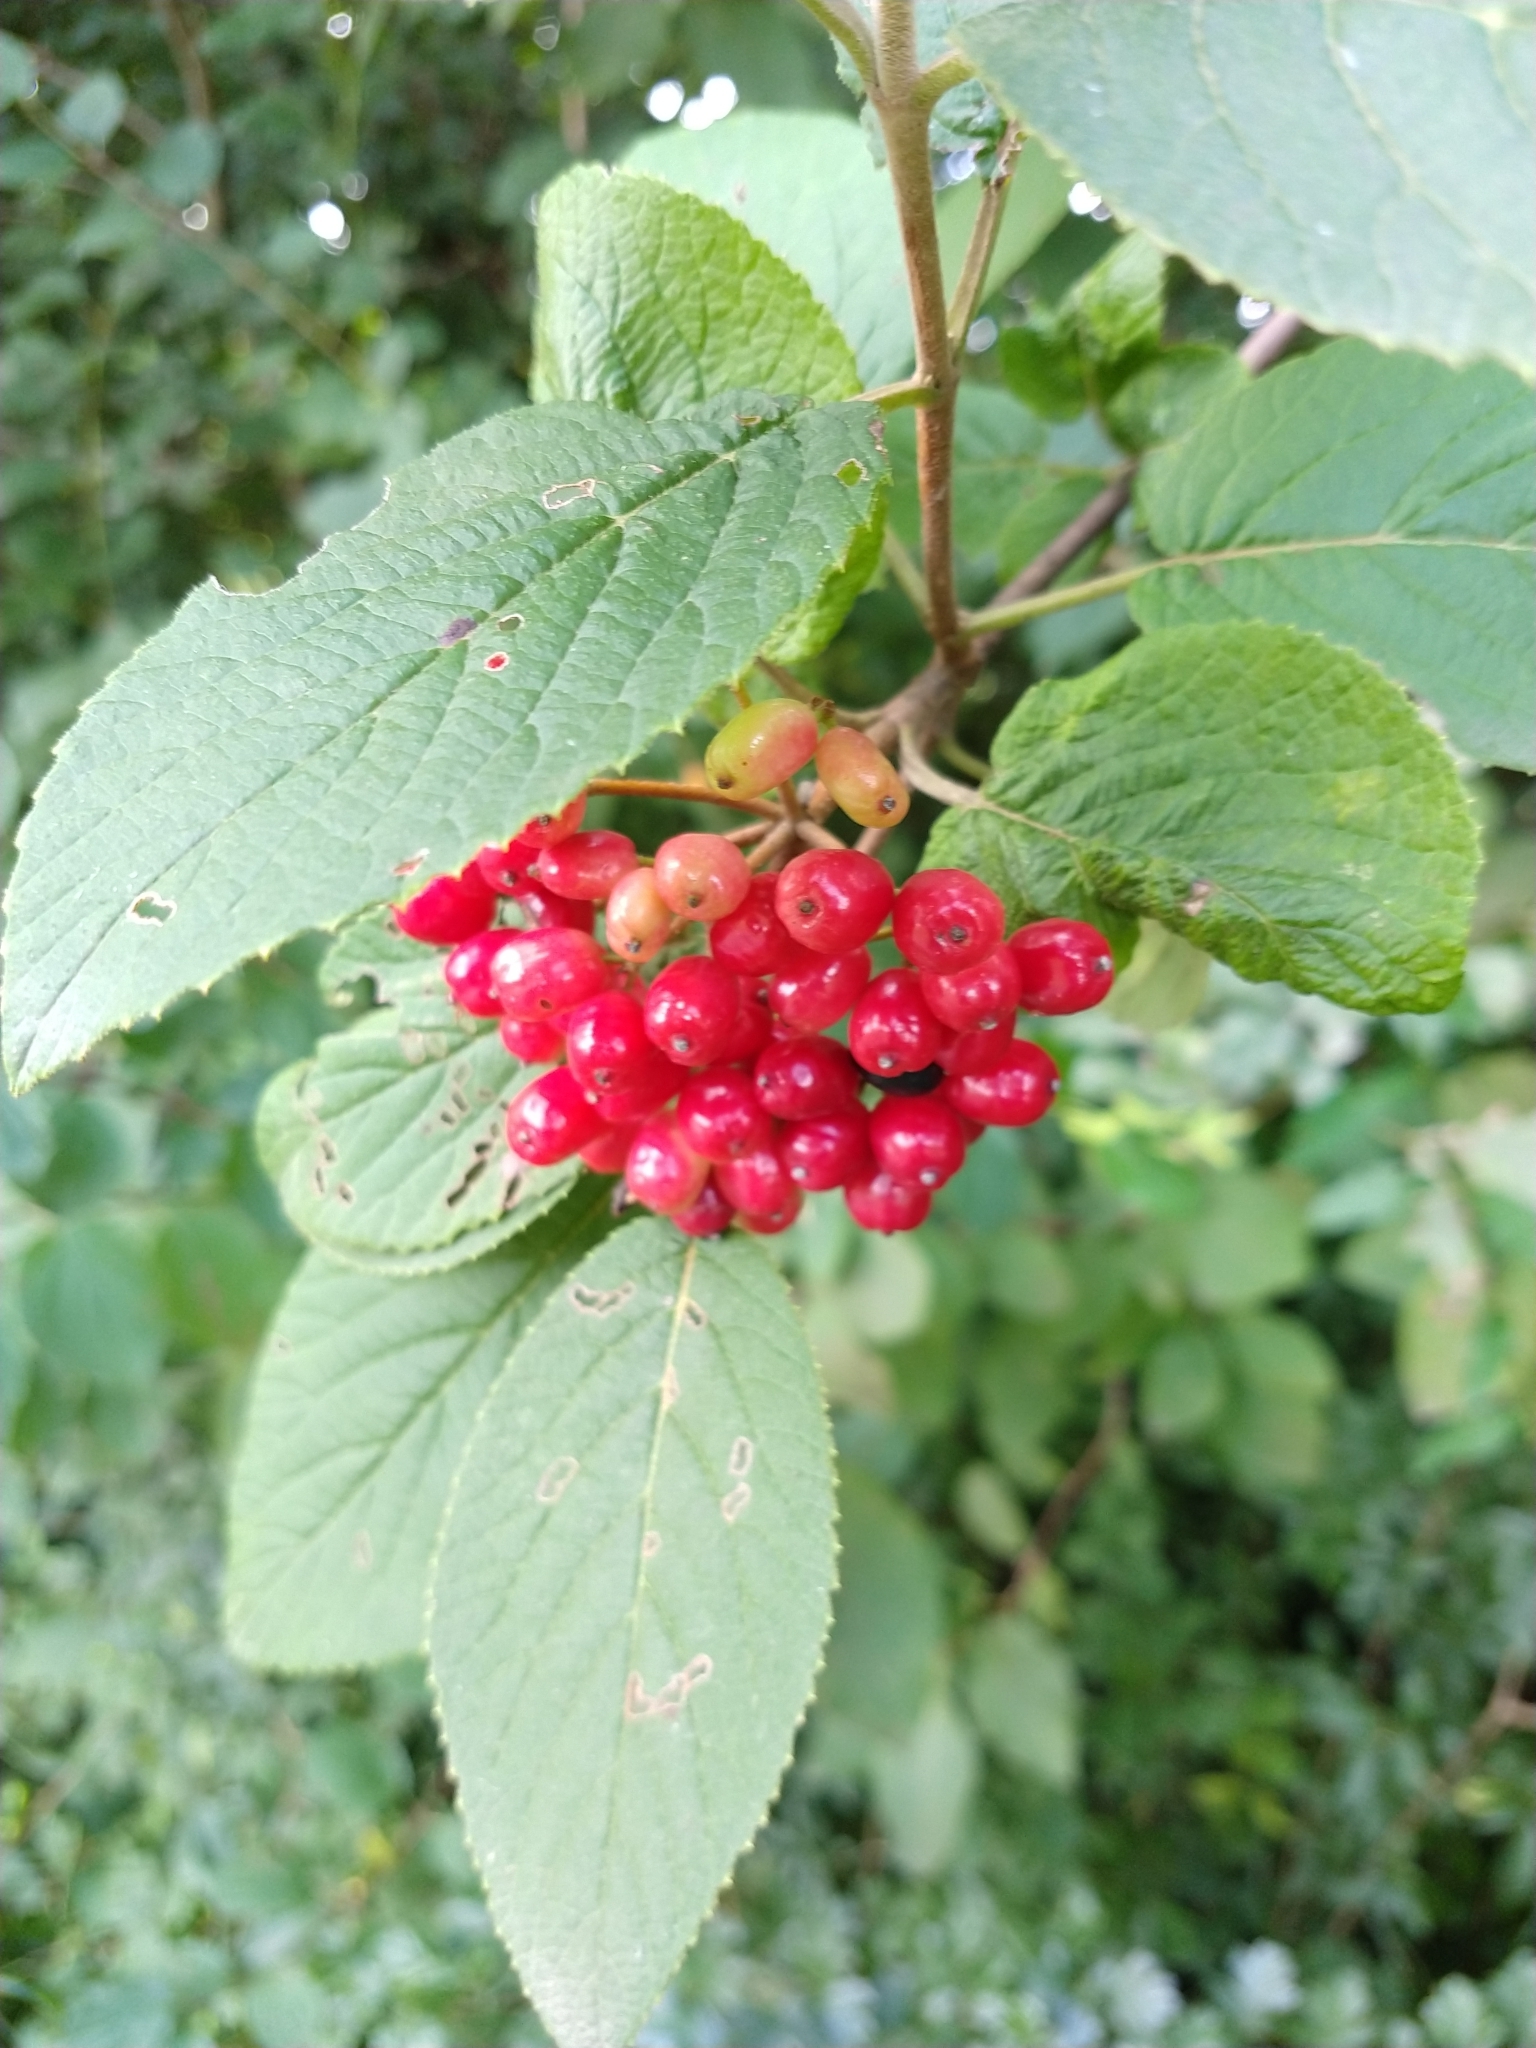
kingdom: Plantae
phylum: Tracheophyta
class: Magnoliopsida
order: Dipsacales
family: Viburnaceae
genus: Viburnum
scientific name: Viburnum lantana
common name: Wayfaring tree
